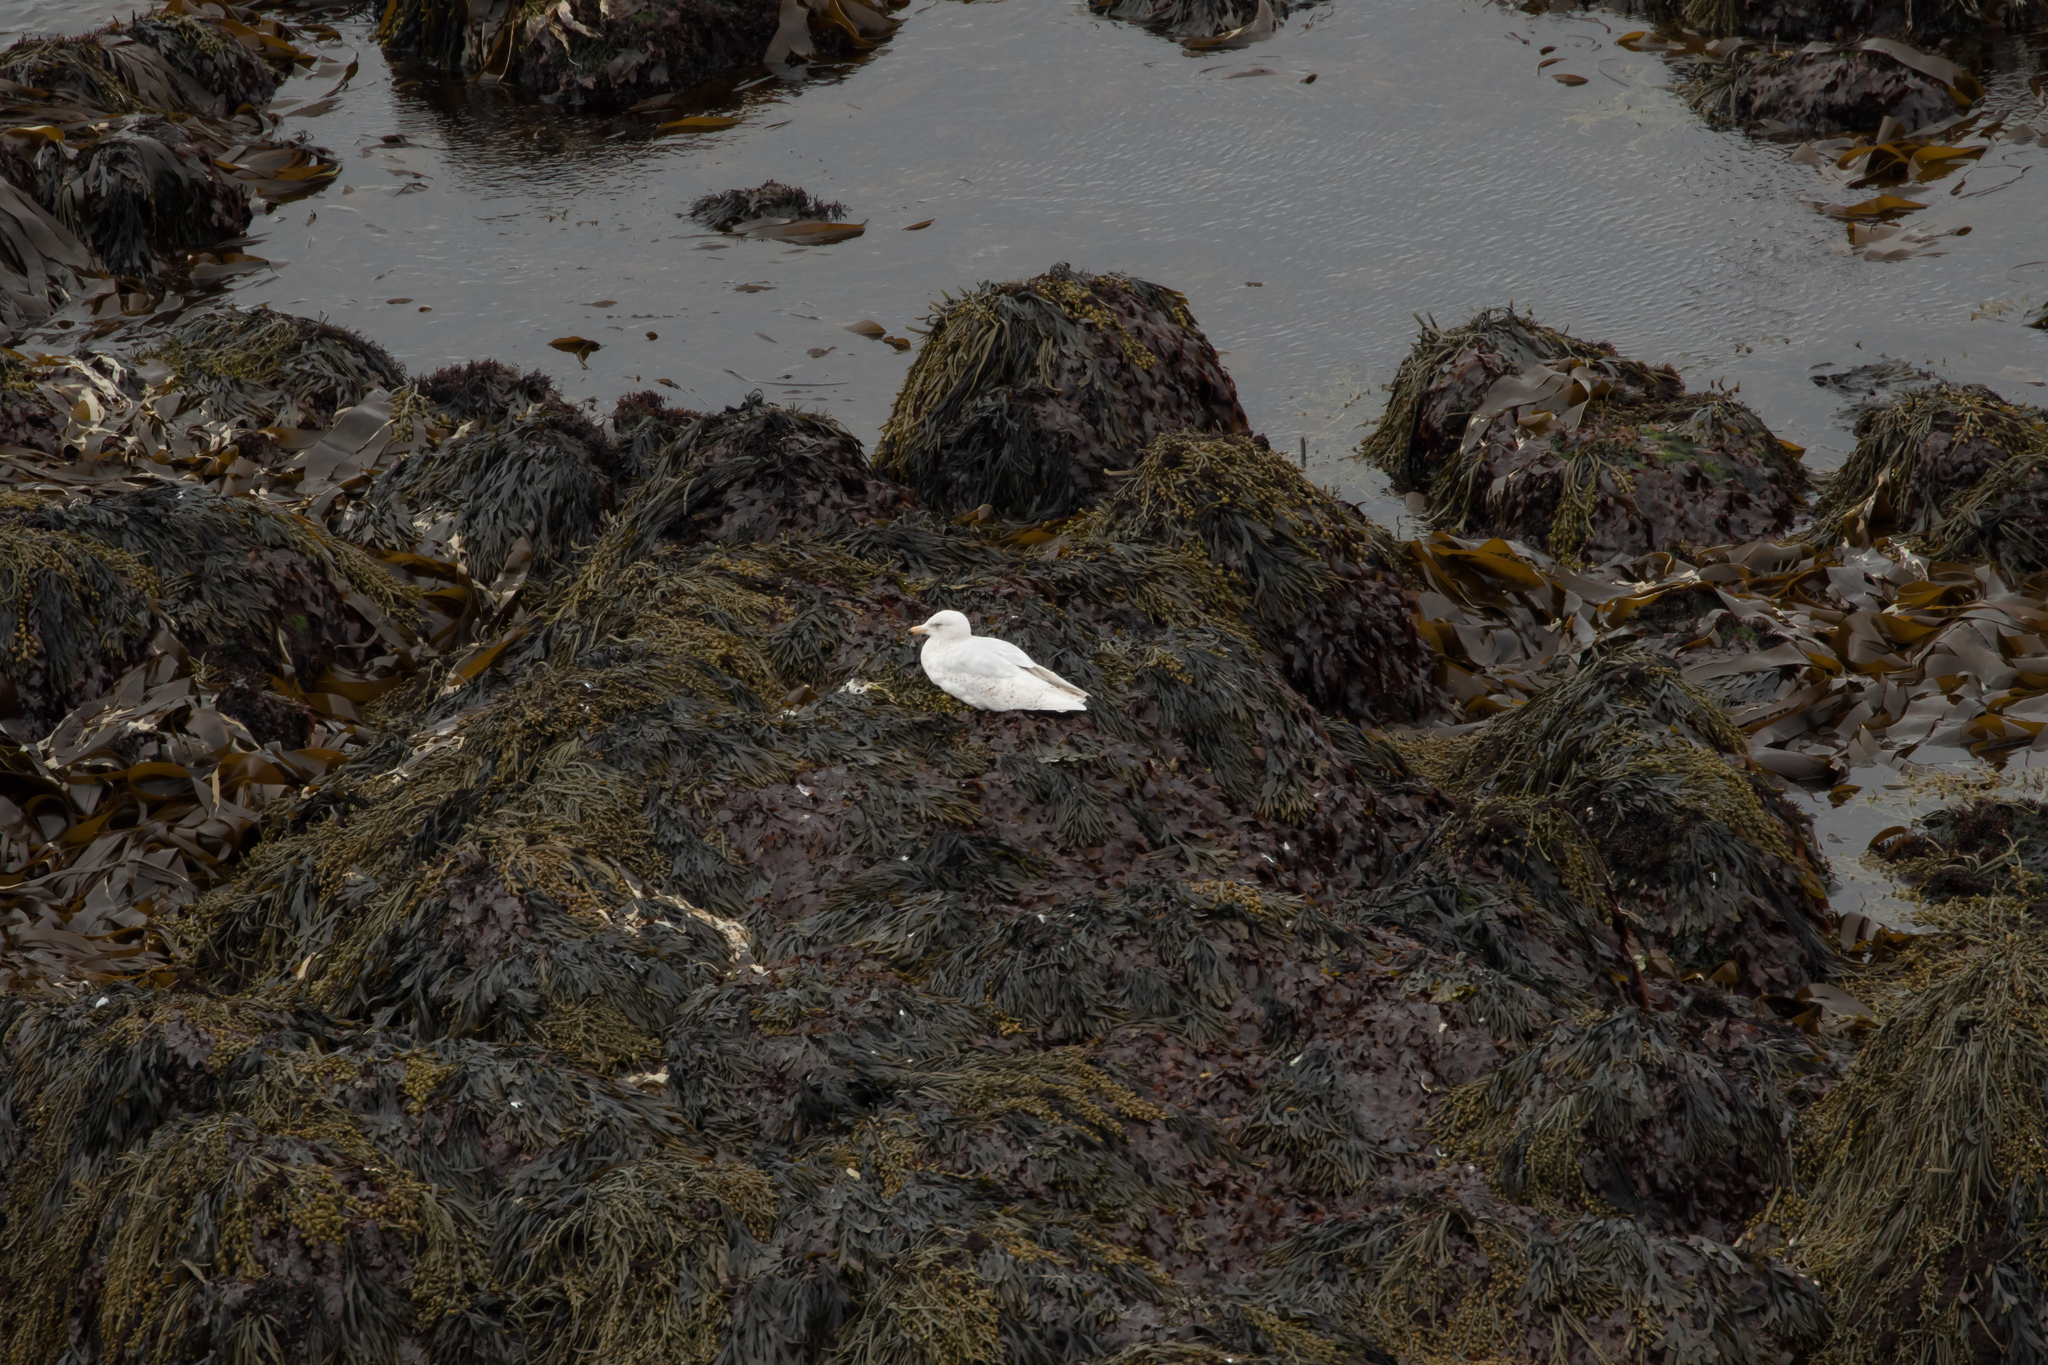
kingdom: Animalia
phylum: Chordata
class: Aves
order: Charadriiformes
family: Laridae
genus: Larus
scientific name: Larus hyperboreus
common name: Glaucous gull
